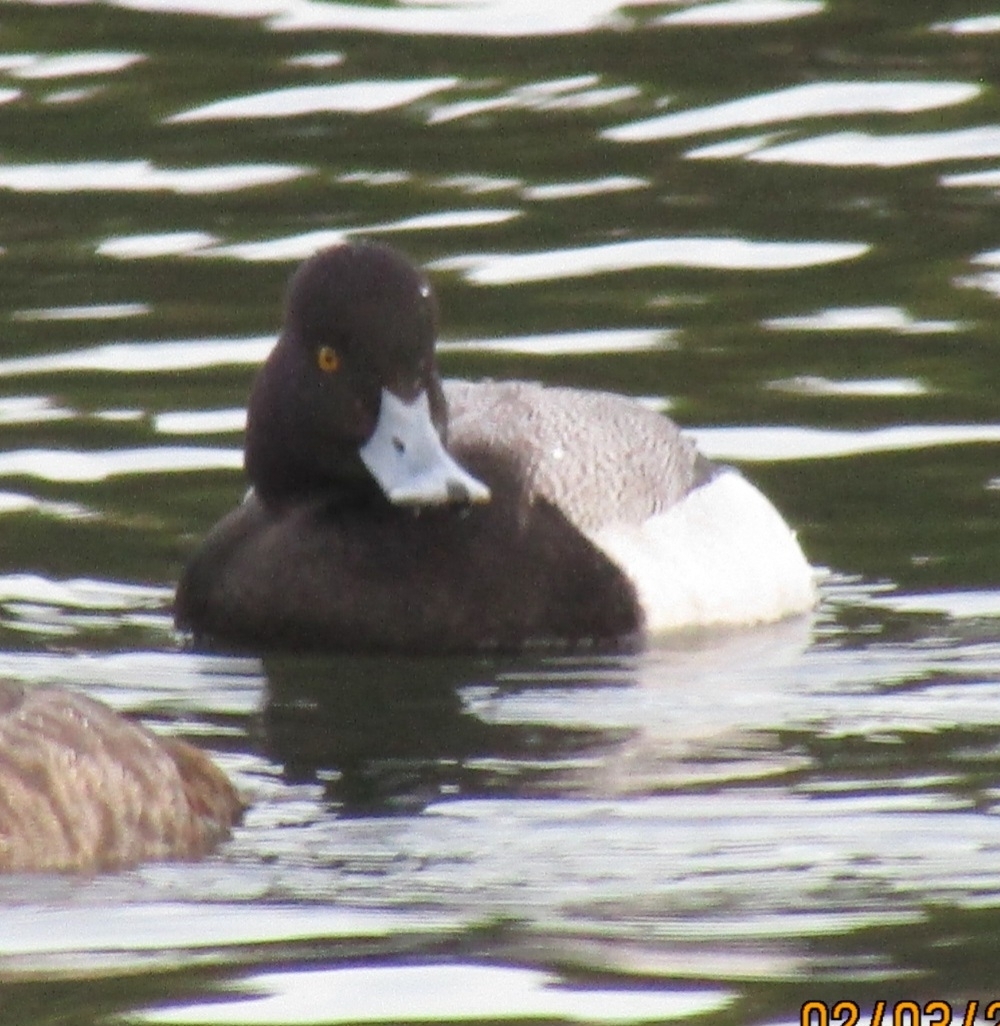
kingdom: Animalia
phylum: Chordata
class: Aves
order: Anseriformes
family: Anatidae
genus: Aythya
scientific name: Aythya affinis
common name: Lesser scaup
